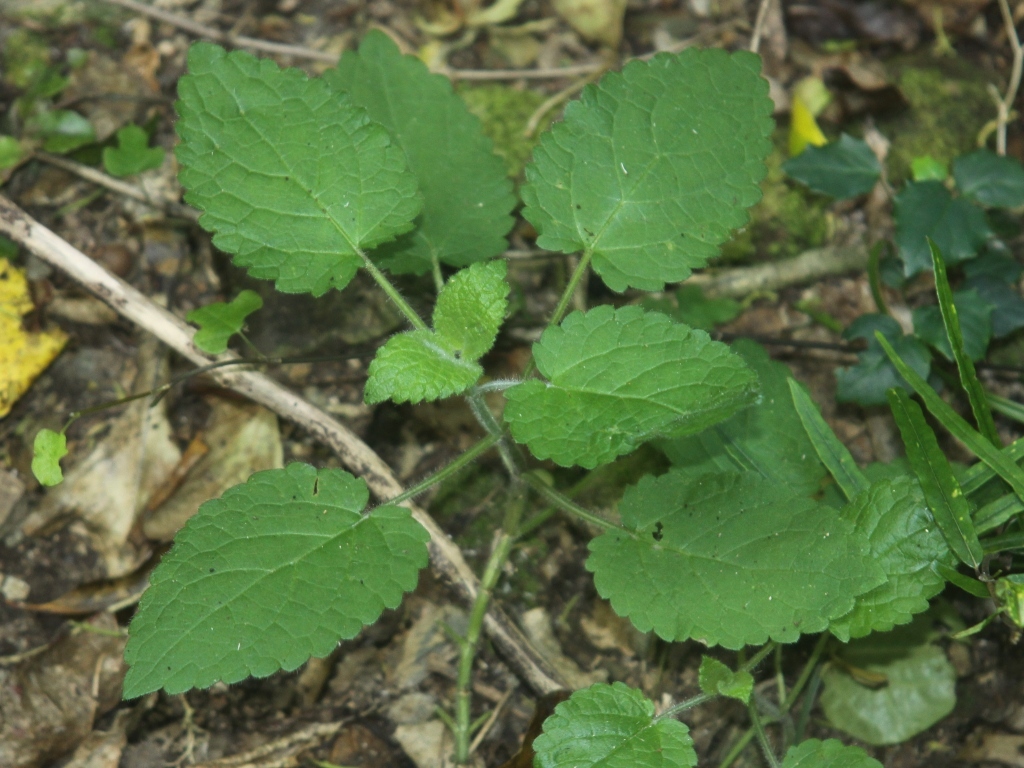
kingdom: Plantae
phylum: Tracheophyta
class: Magnoliopsida
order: Lamiales
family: Lamiaceae
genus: Stachys
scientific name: Stachys sylvatica
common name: Hedge woundwort
